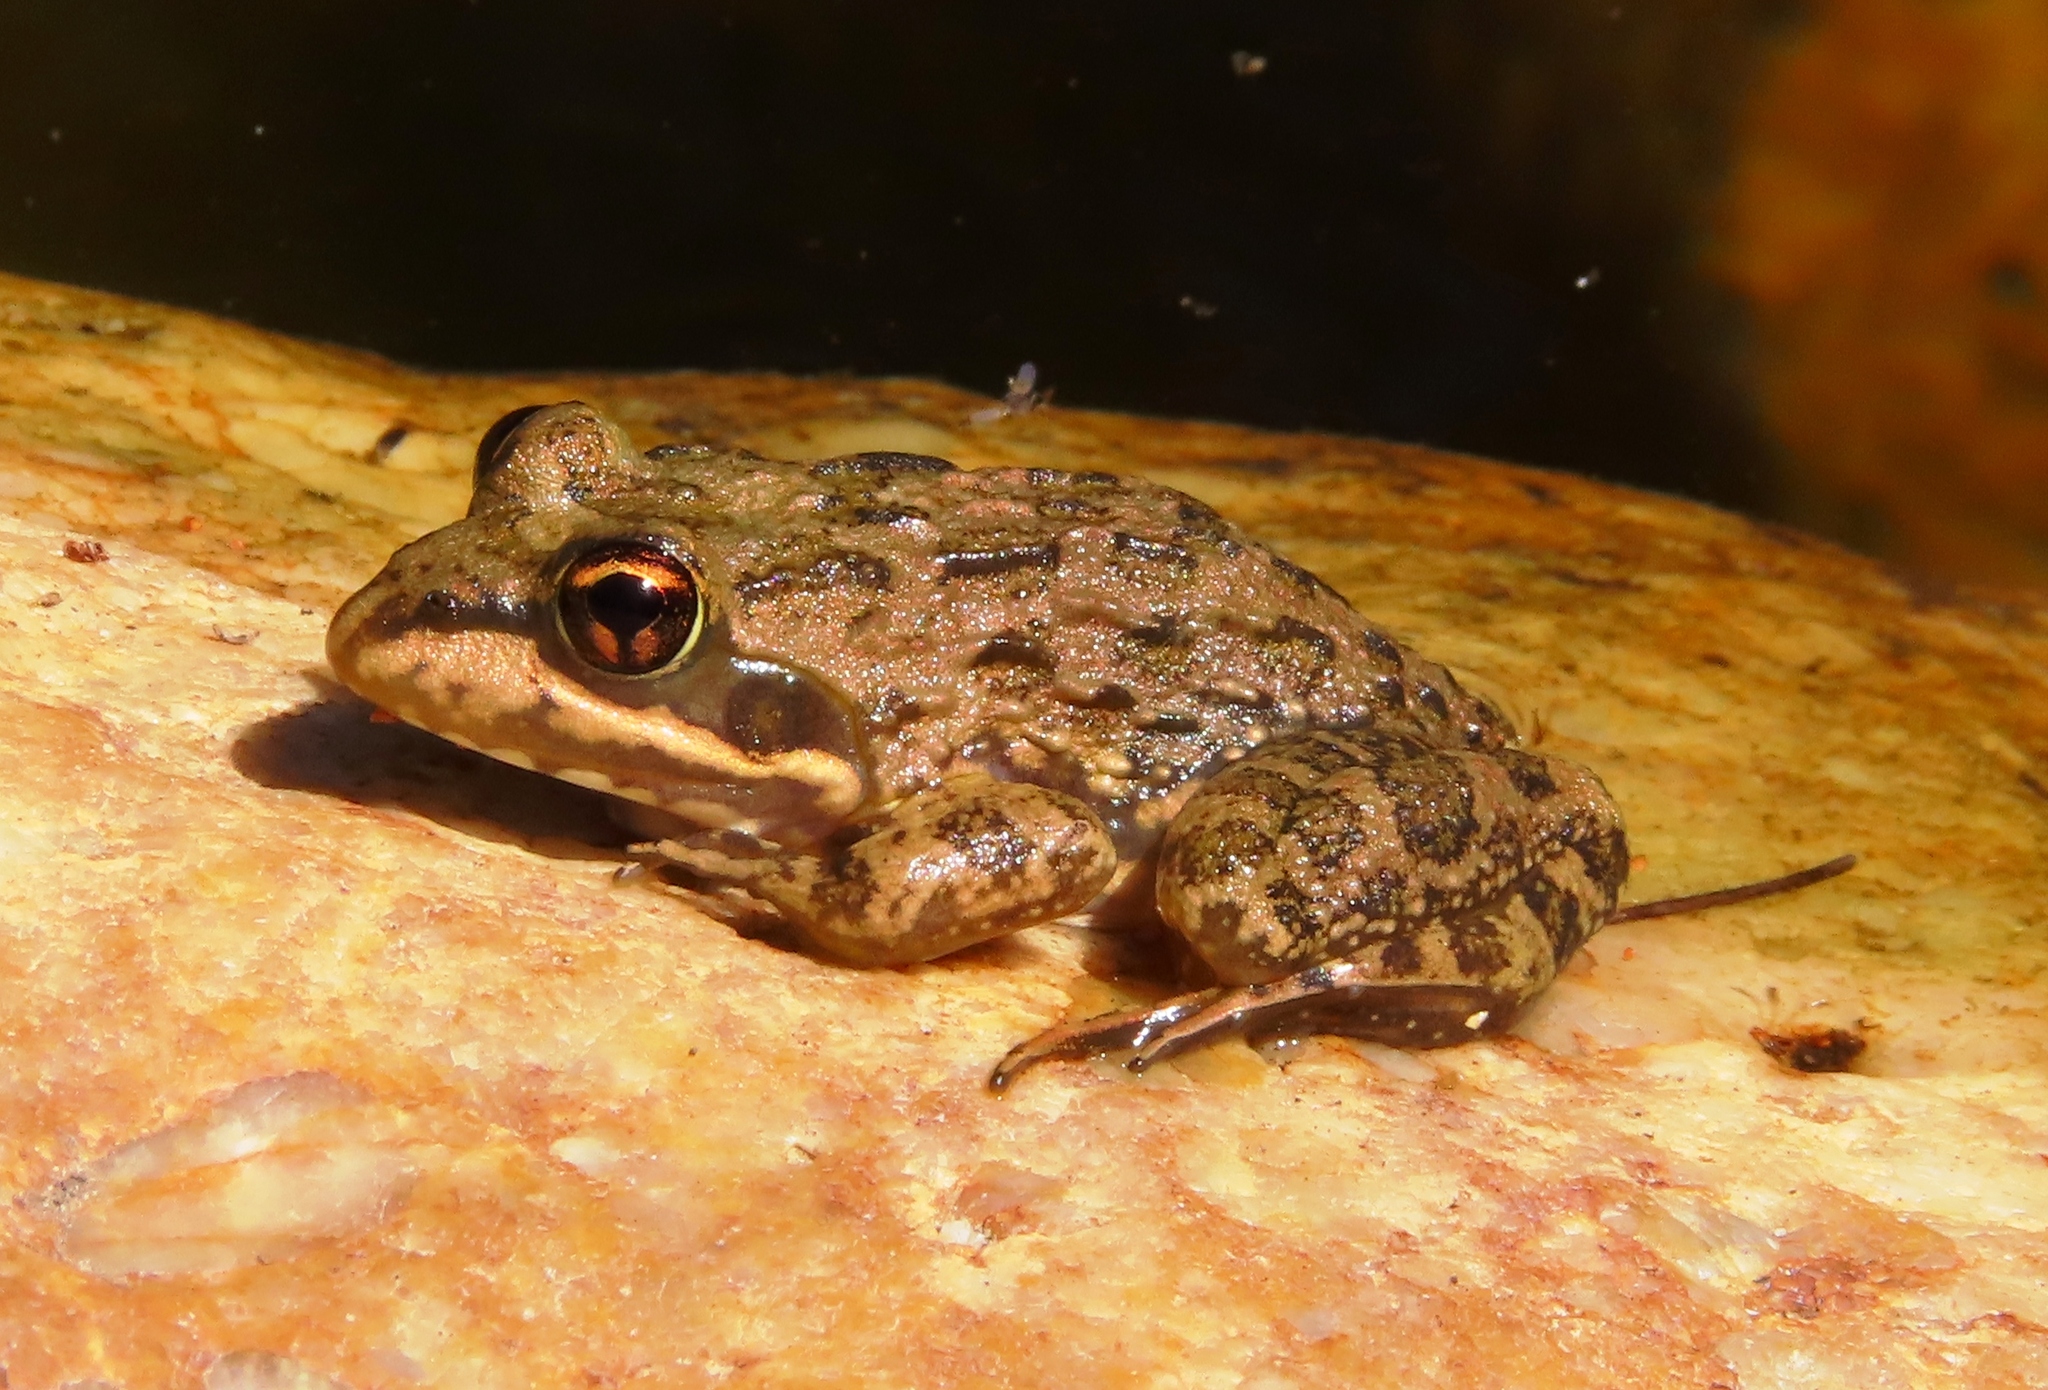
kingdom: Animalia
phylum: Chordata
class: Amphibia
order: Anura
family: Pyxicephalidae
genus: Amietia
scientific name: Amietia fuscigula
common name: Cape rana
